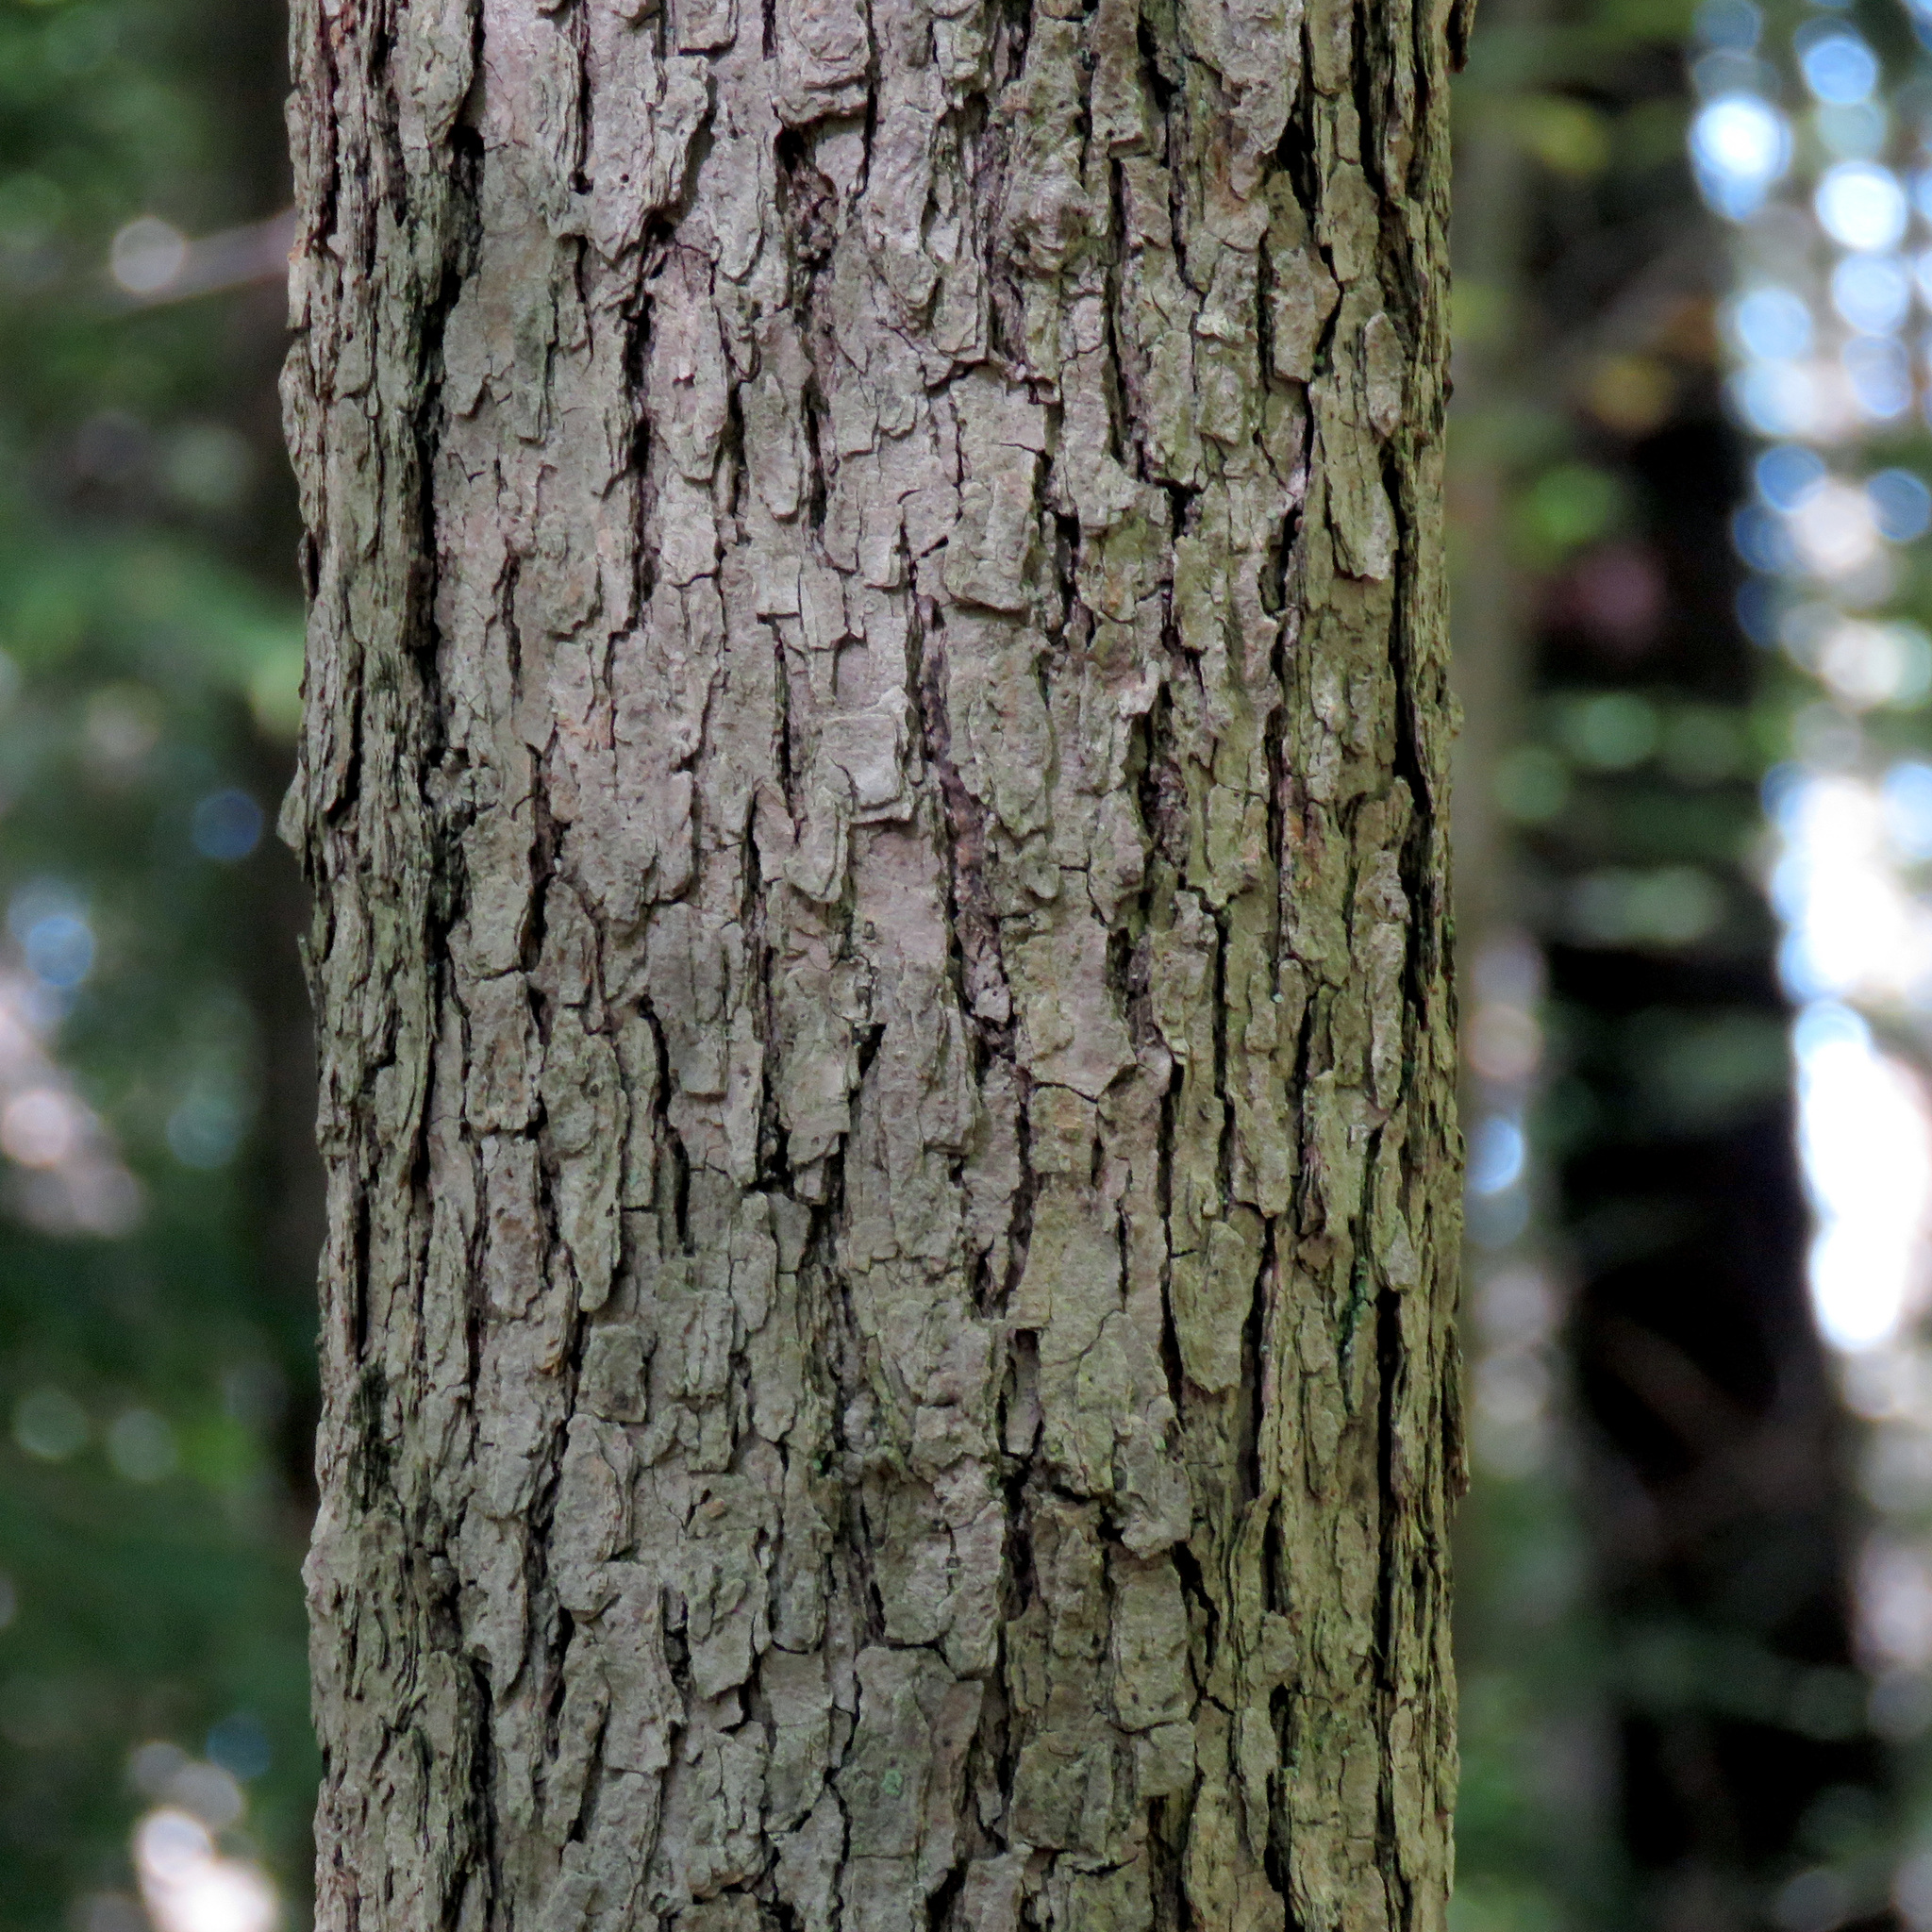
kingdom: Plantae
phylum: Tracheophyta
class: Magnoliopsida
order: Cornales
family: Nyssaceae
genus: Nyssa
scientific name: Nyssa sylvatica
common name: Black tupelo
